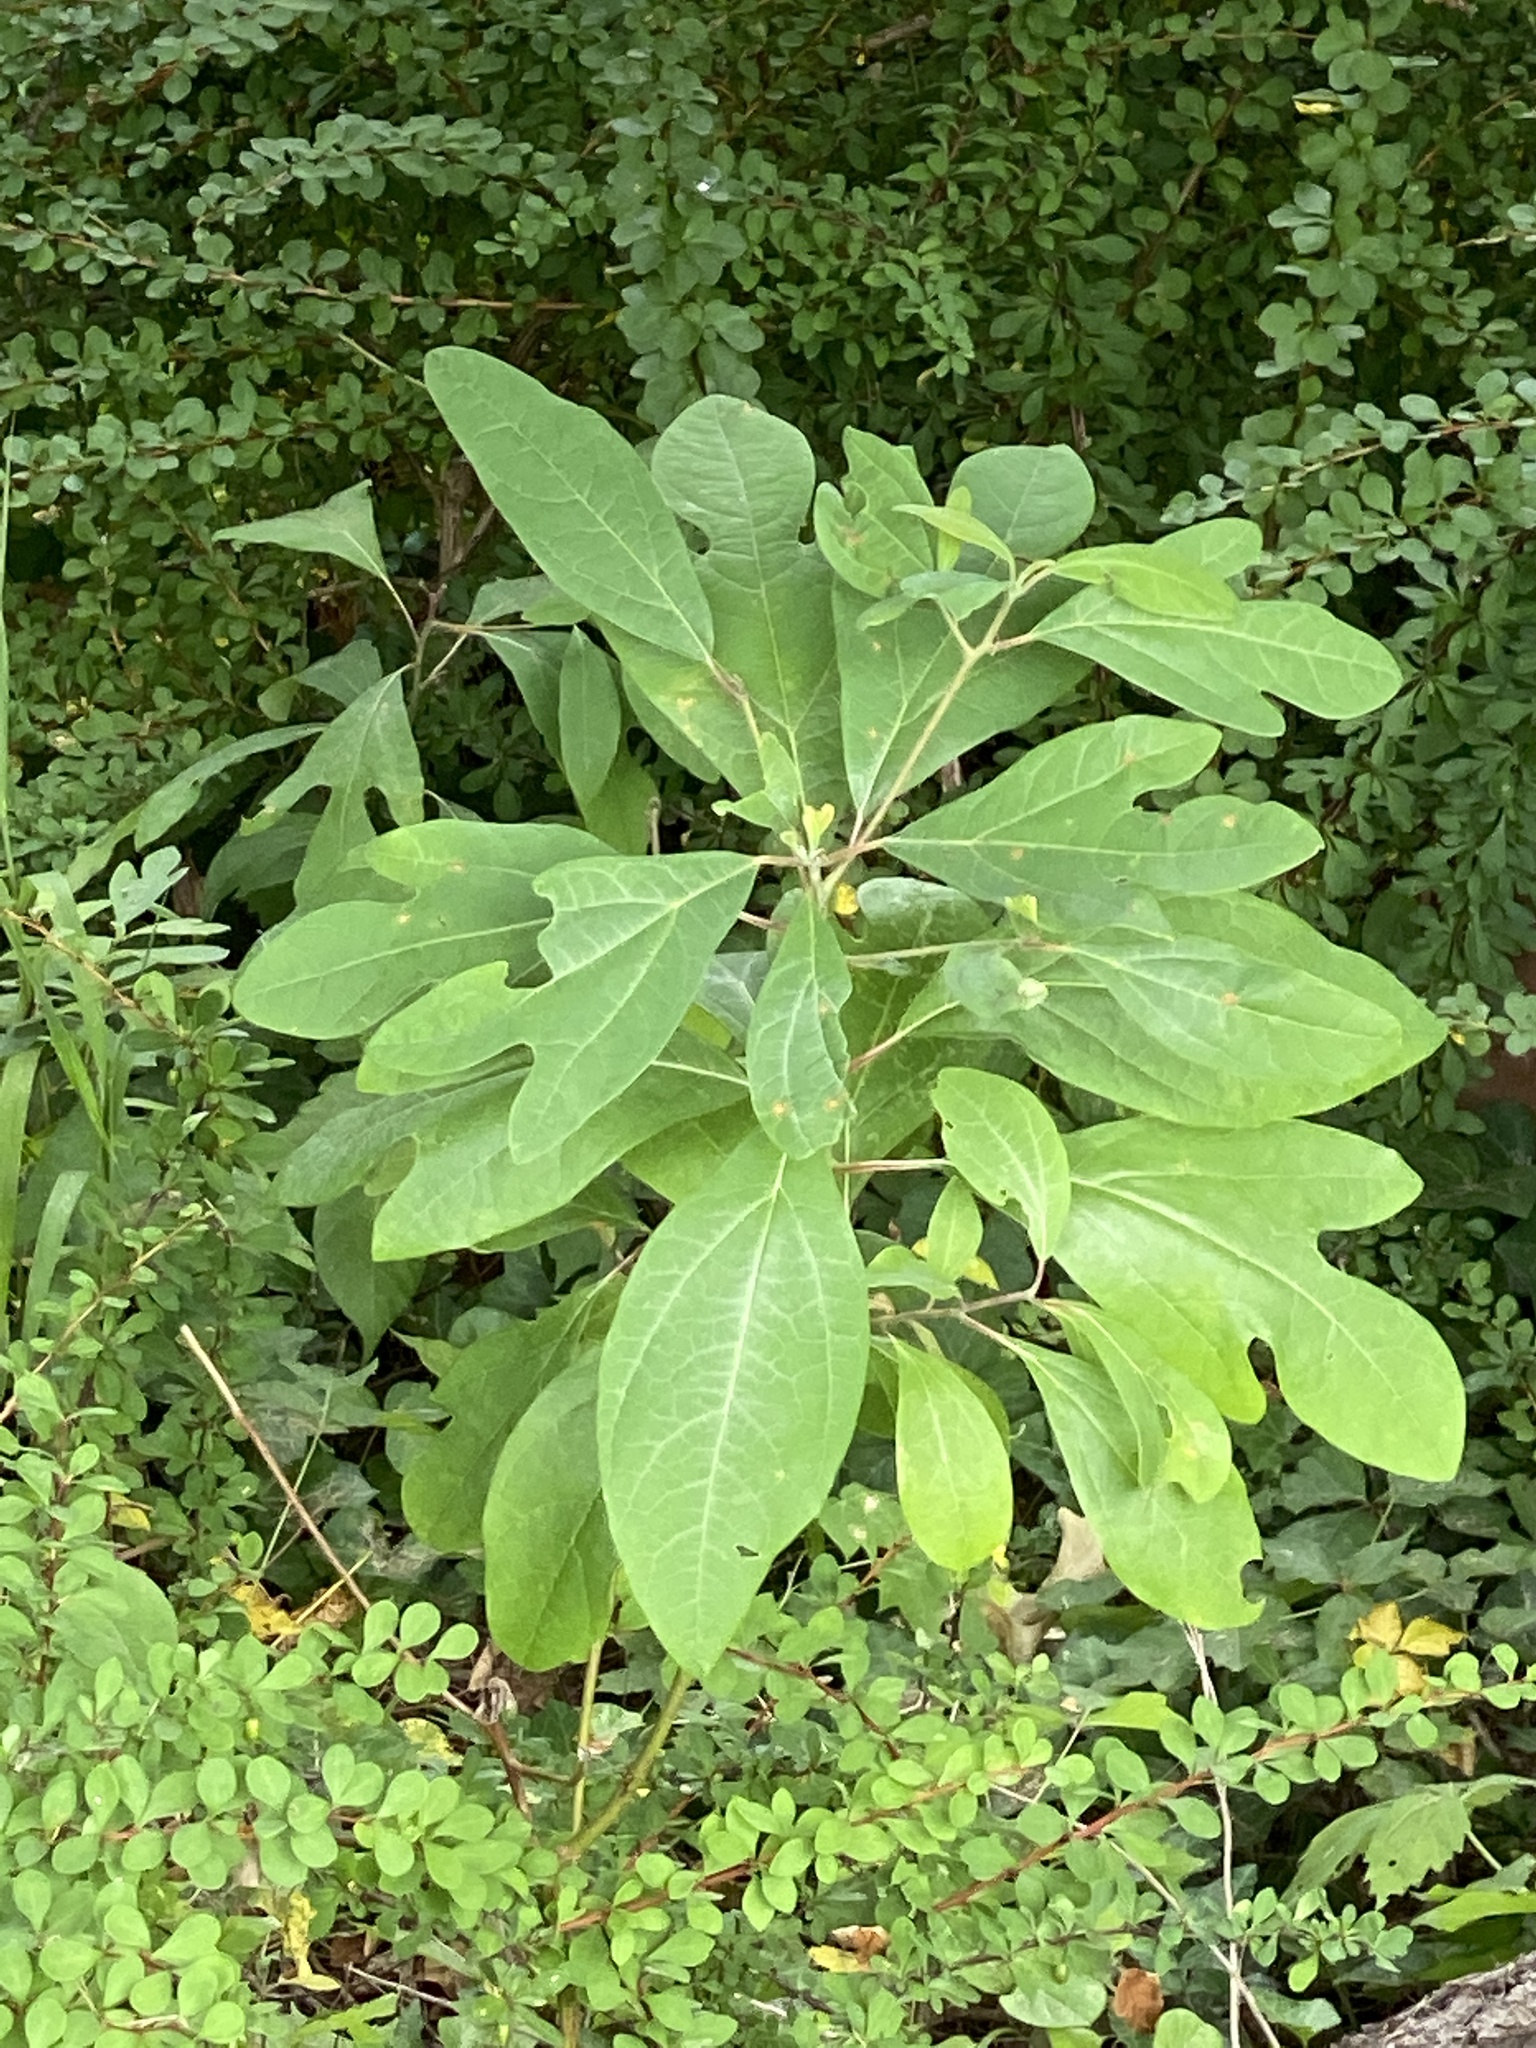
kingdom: Plantae
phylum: Tracheophyta
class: Magnoliopsida
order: Laurales
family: Lauraceae
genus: Sassafras
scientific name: Sassafras albidum
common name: Sassafras
